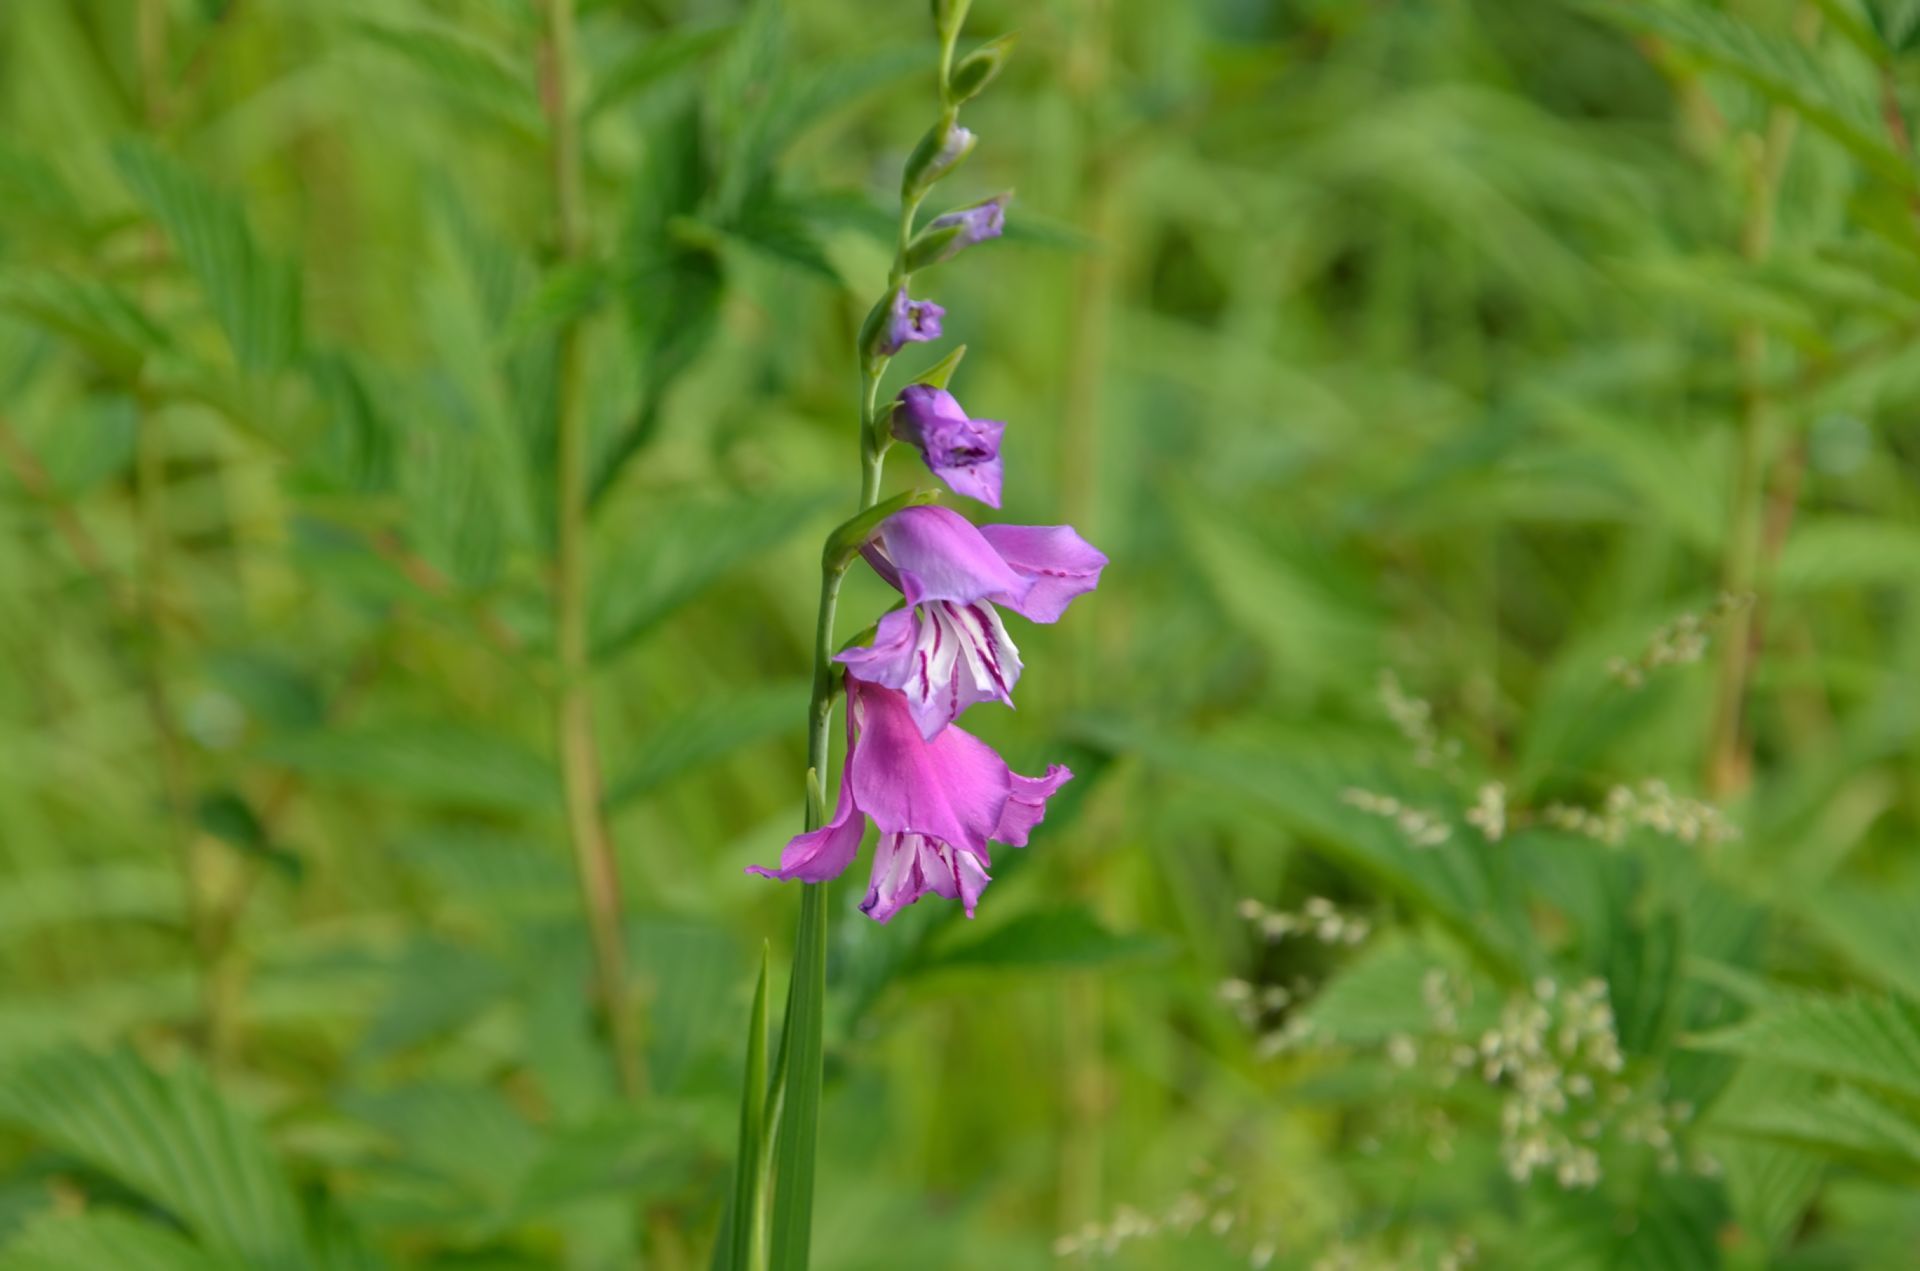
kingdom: Plantae
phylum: Tracheophyta
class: Liliopsida
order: Asparagales
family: Iridaceae
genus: Gladiolus
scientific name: Gladiolus imbricatus
